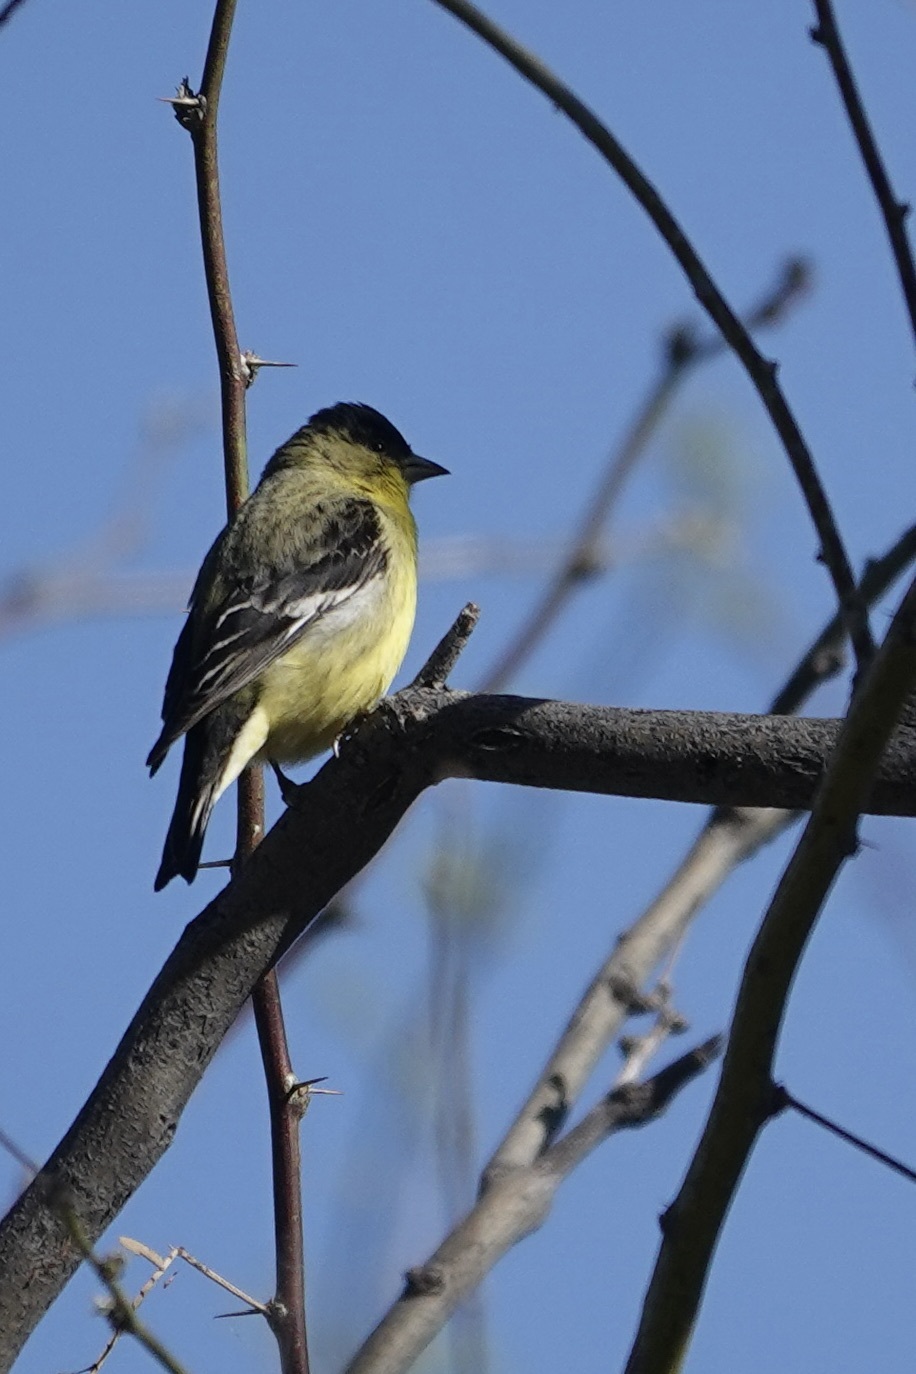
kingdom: Animalia
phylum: Chordata
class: Aves
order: Passeriformes
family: Fringillidae
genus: Spinus
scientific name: Spinus psaltria
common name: Lesser goldfinch
